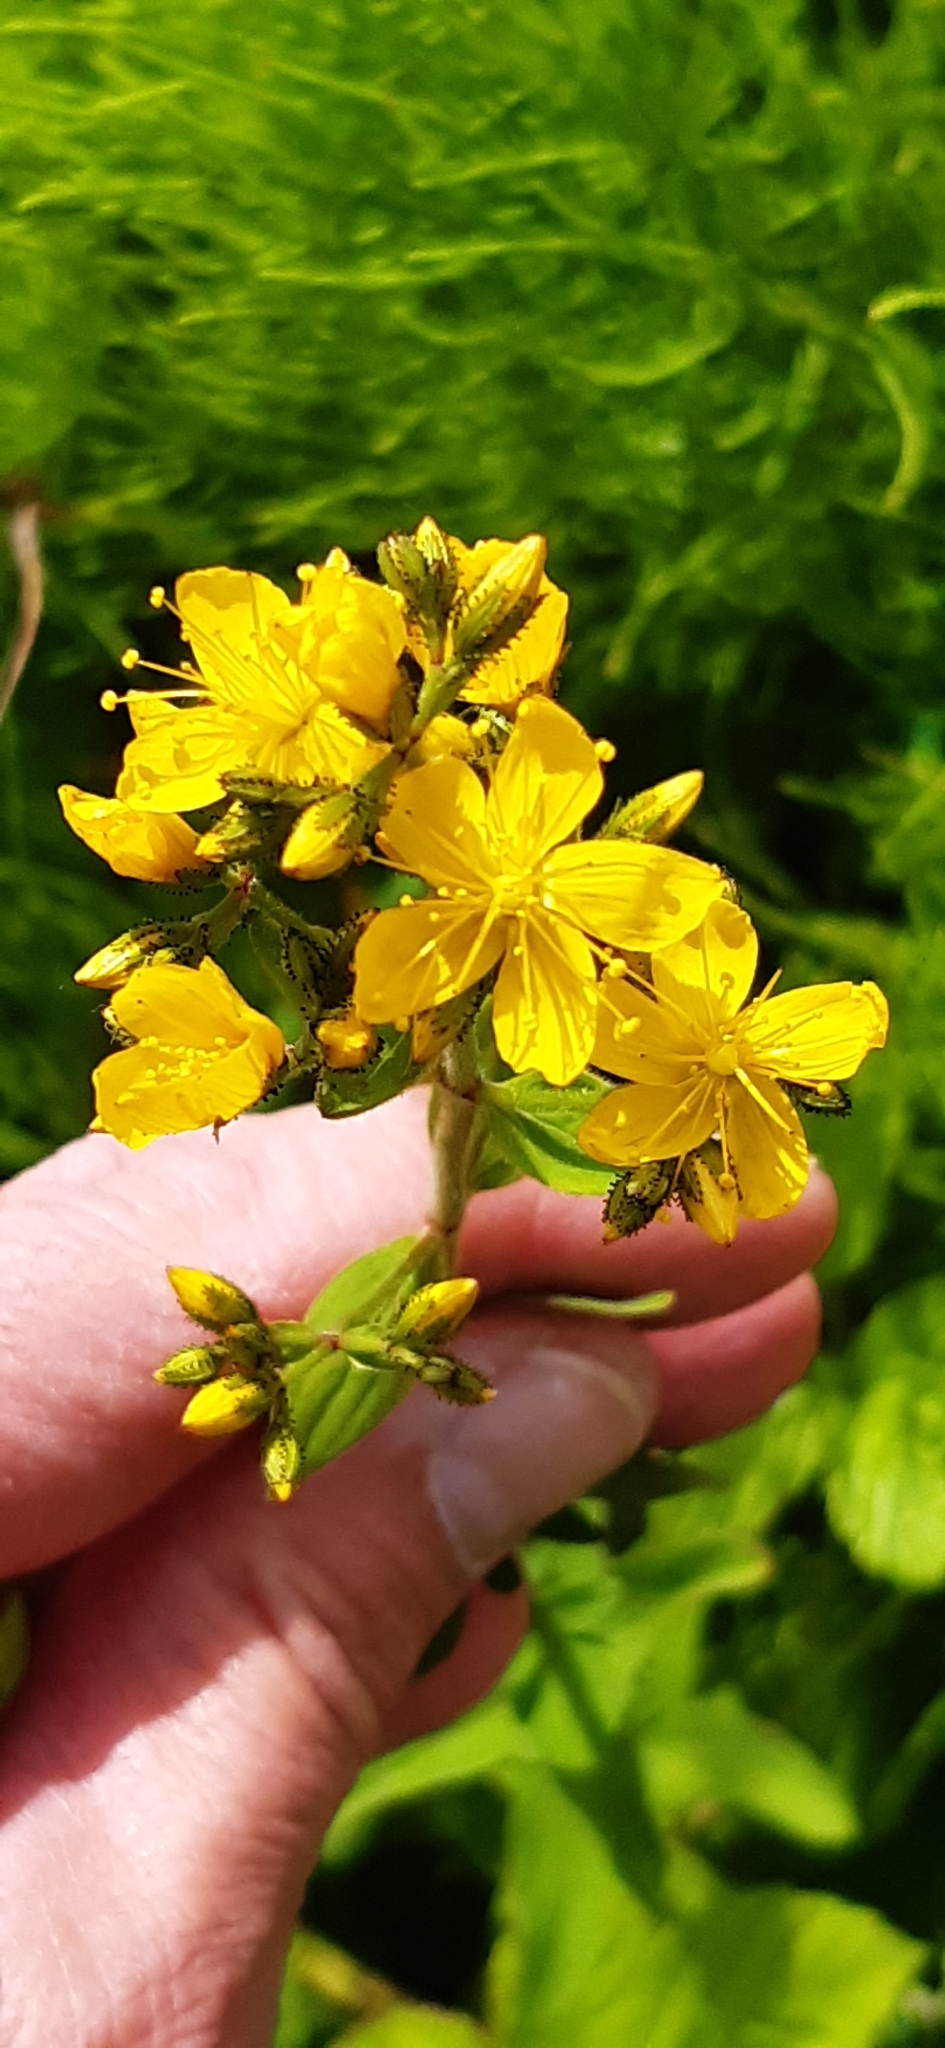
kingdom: Plantae
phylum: Tracheophyta
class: Magnoliopsida
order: Malpighiales
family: Hypericaceae
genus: Hypericum
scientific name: Hypericum hirsutum
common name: Hairy st. john's-wort
